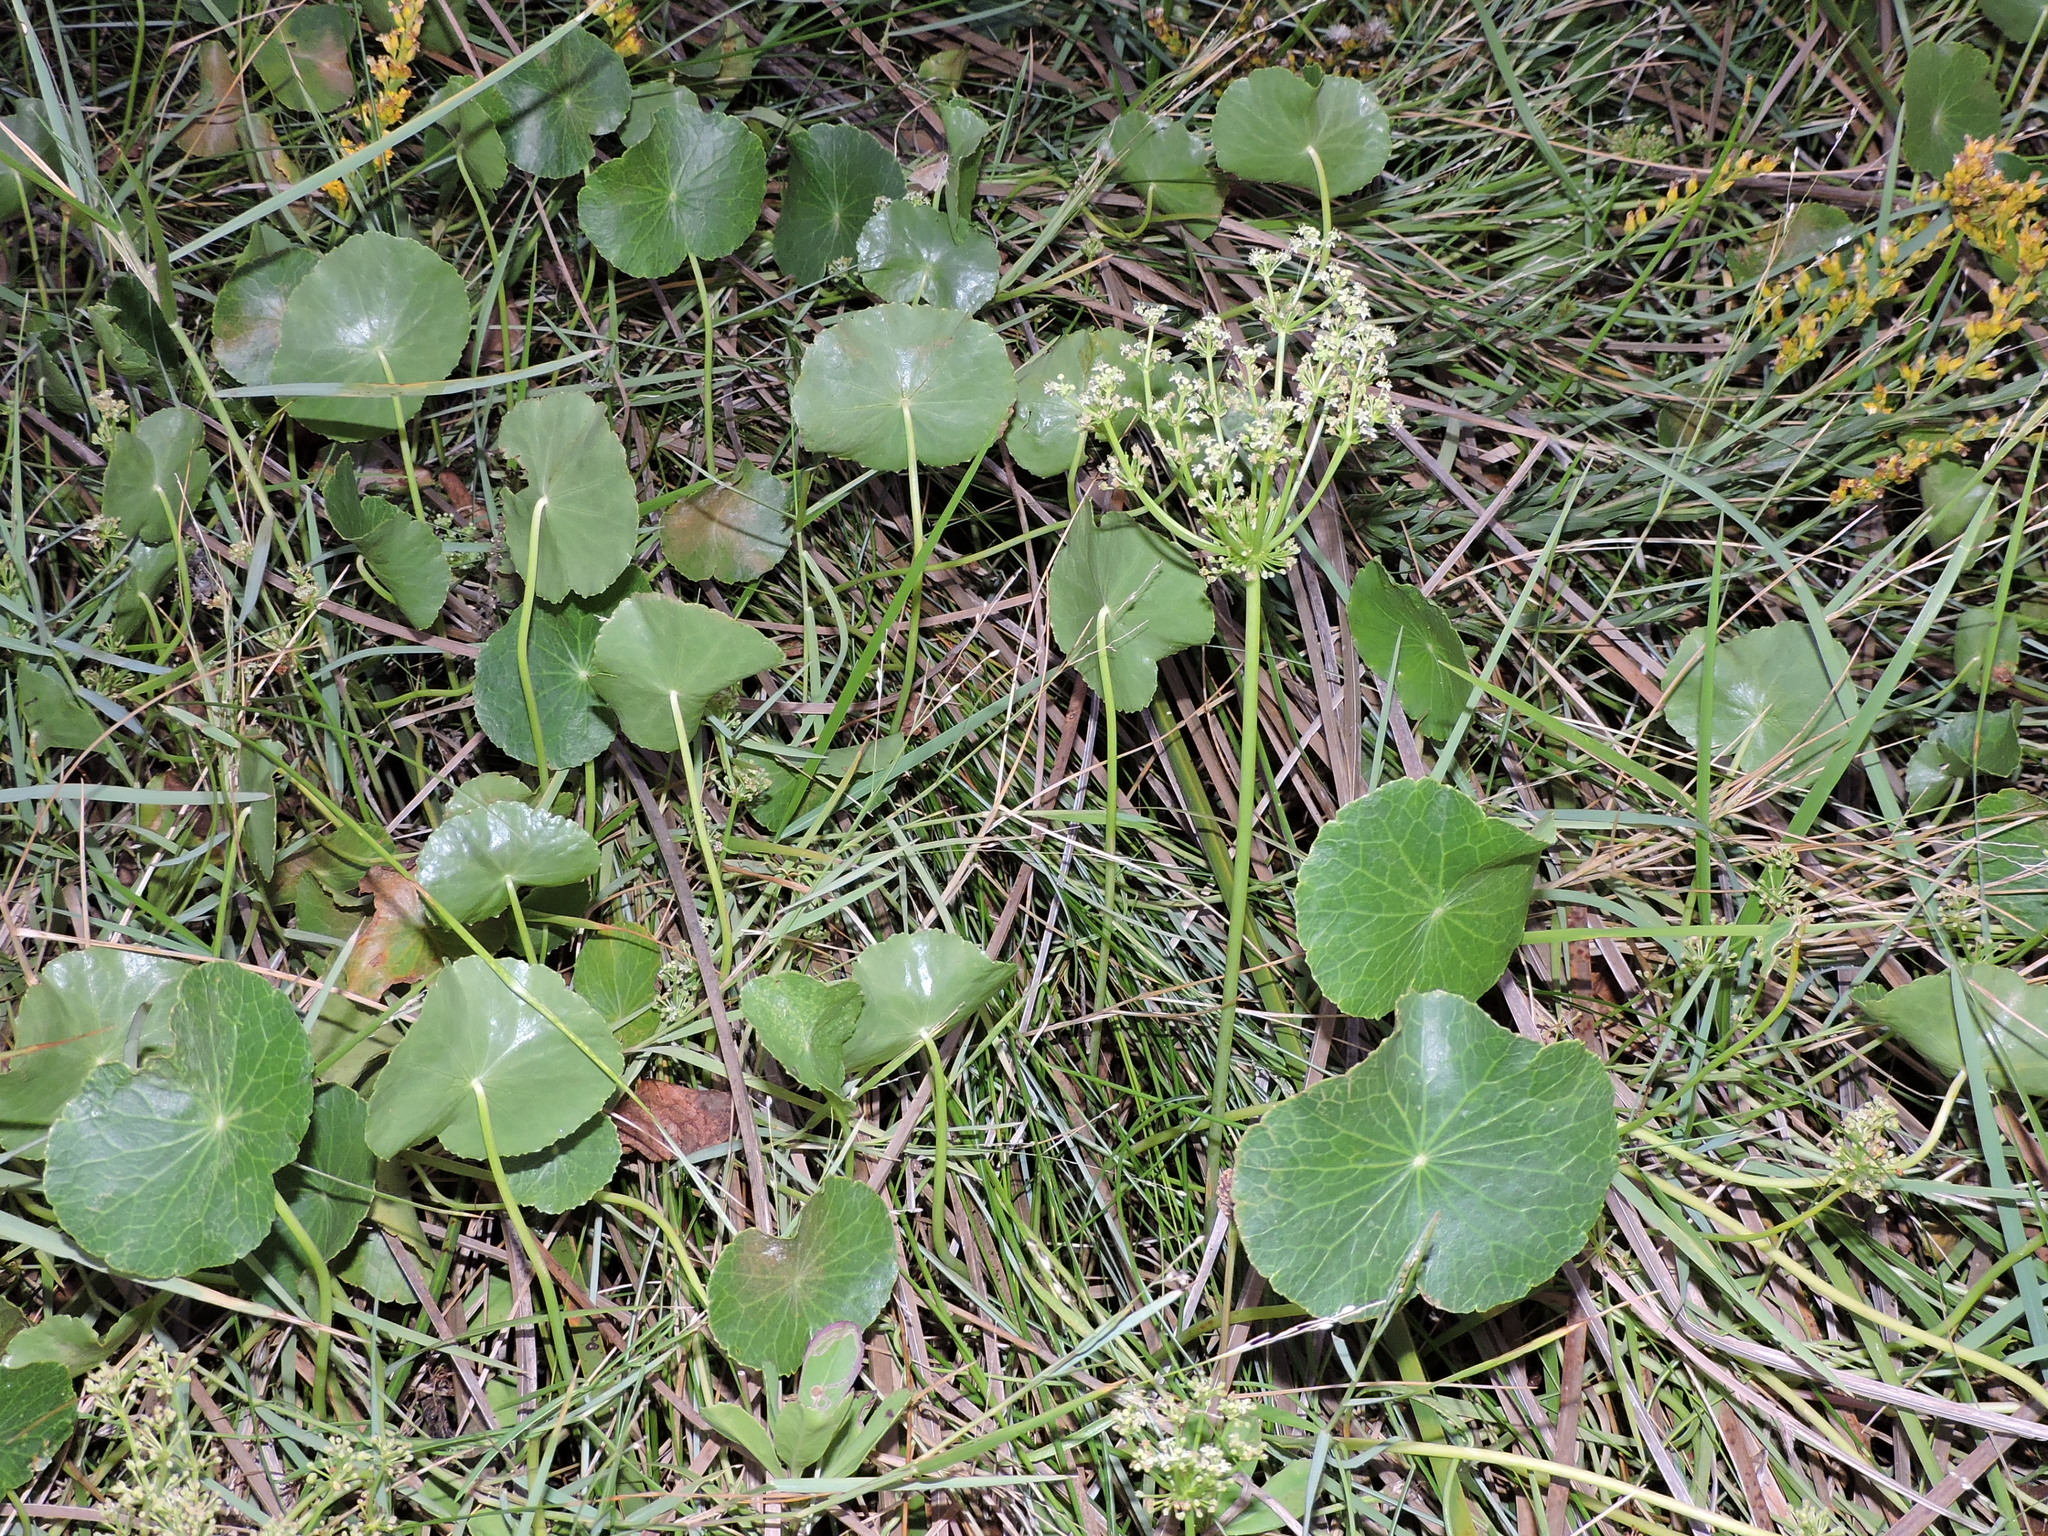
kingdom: Plantae
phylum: Tracheophyta
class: Magnoliopsida
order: Apiales
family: Araliaceae
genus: Hydrocotyle
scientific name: Hydrocotyle bonariensis
